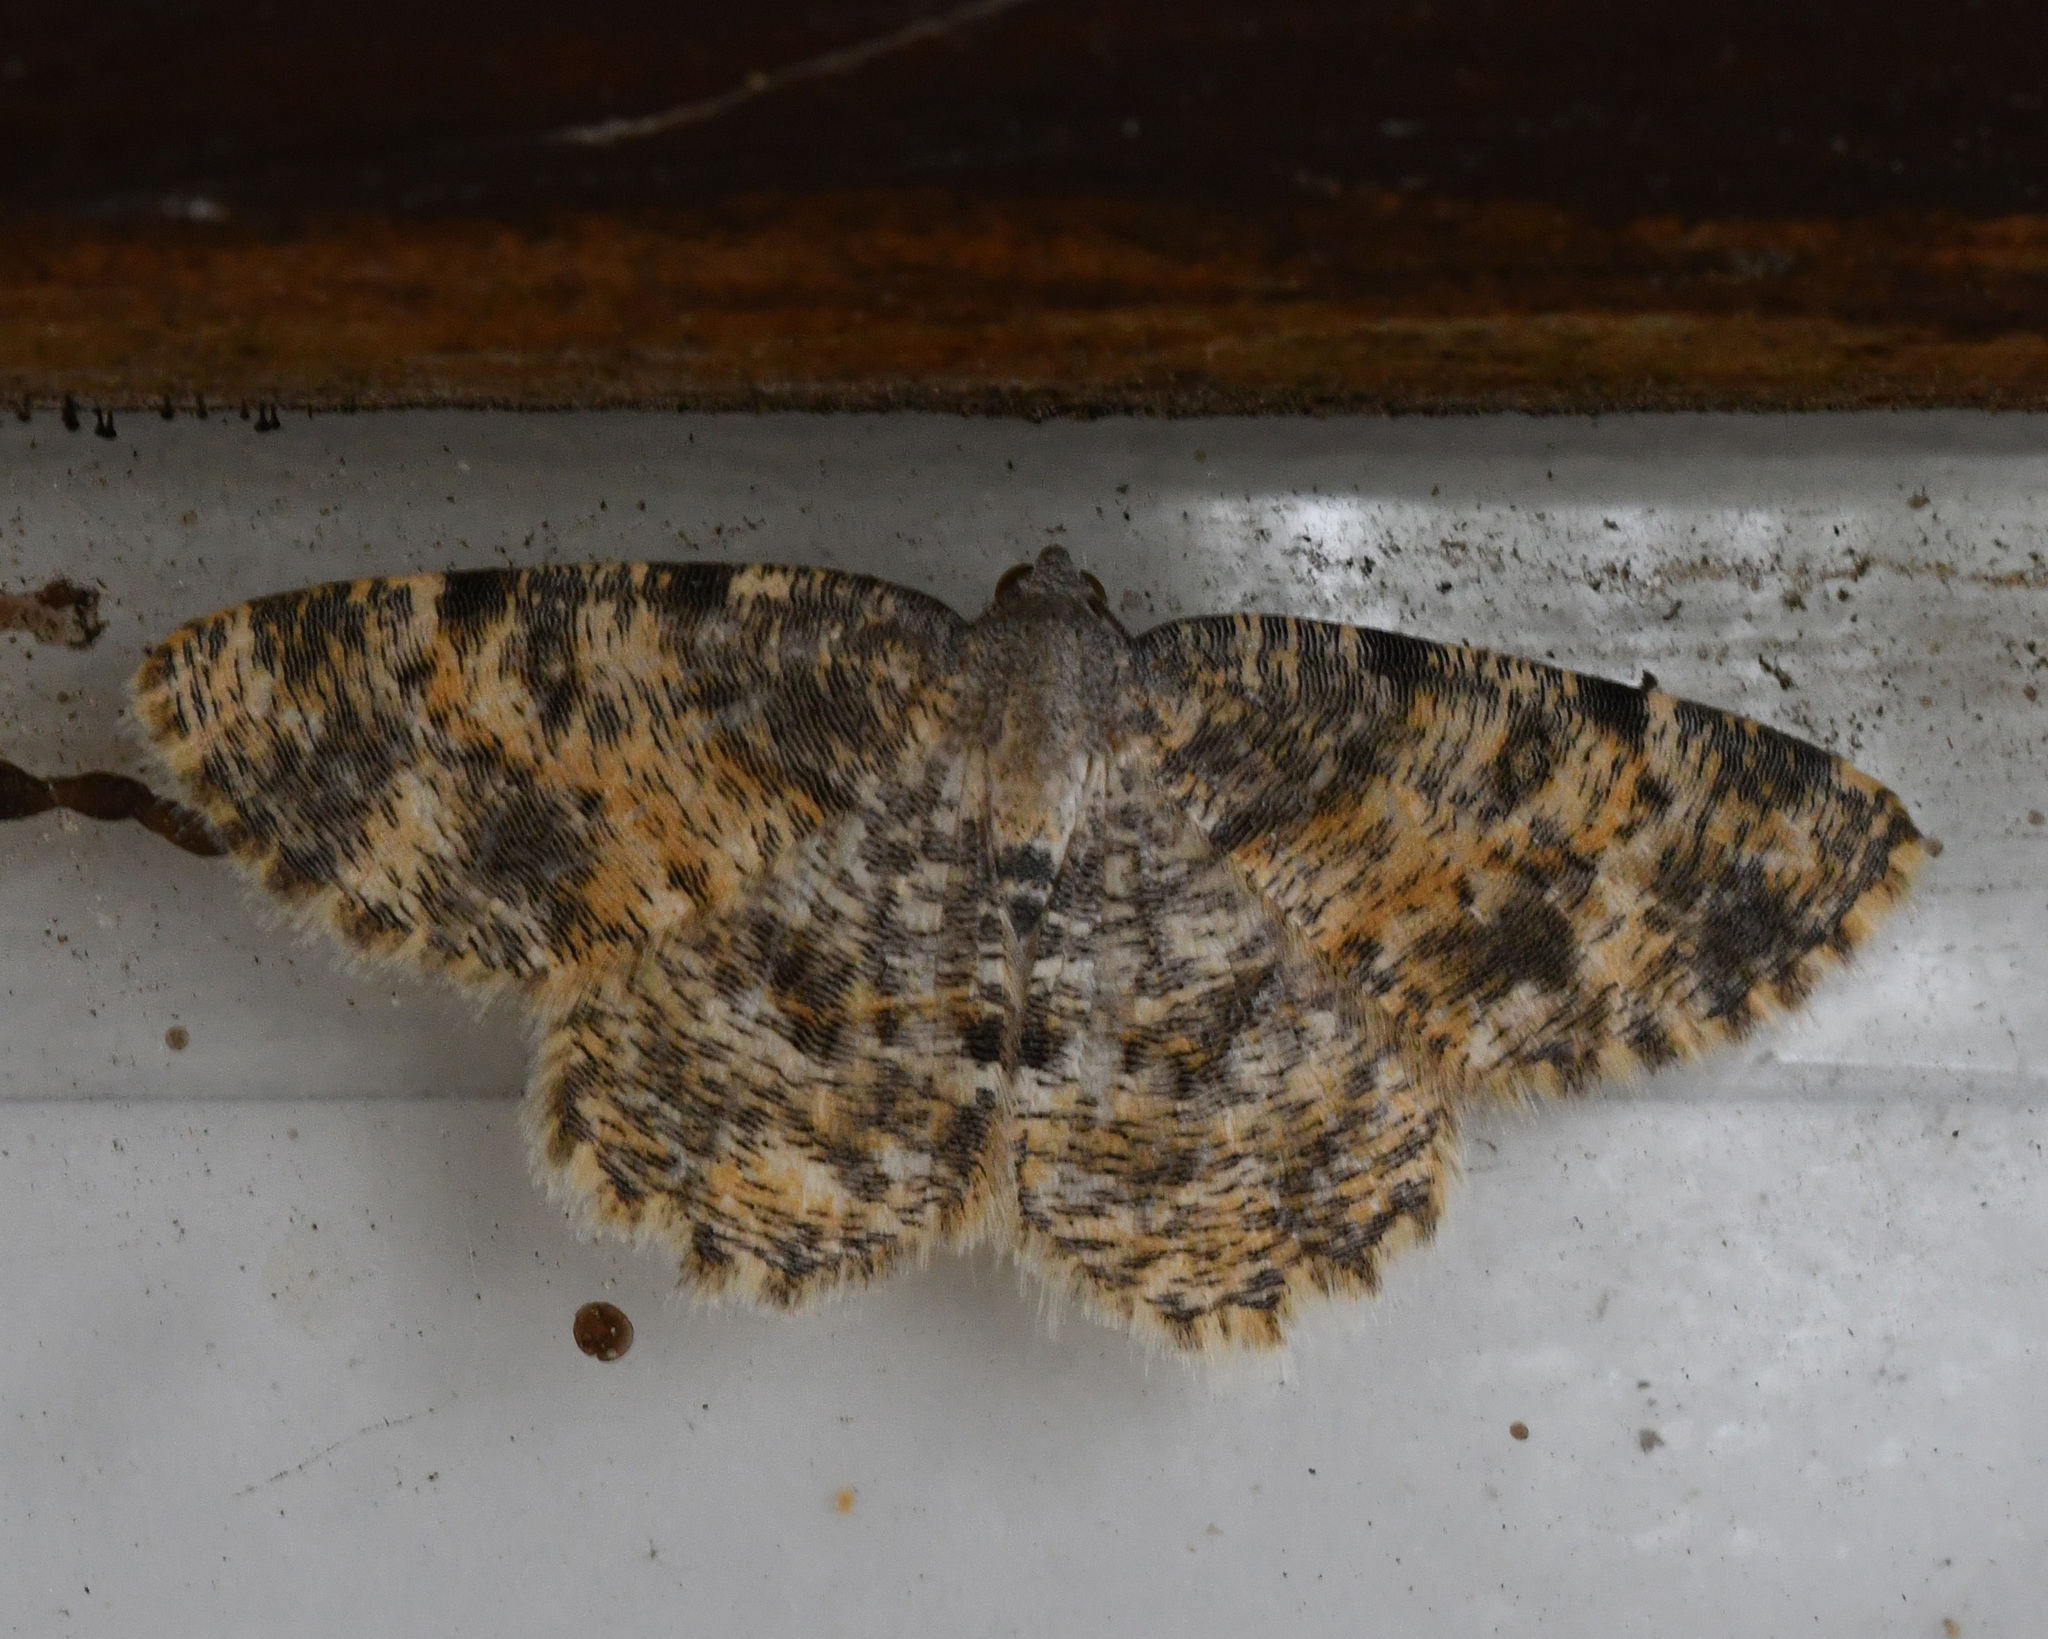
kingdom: Animalia
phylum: Arthropoda
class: Insecta
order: Lepidoptera
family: Geometridae
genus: Charissa
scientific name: Charissa subtaurica
